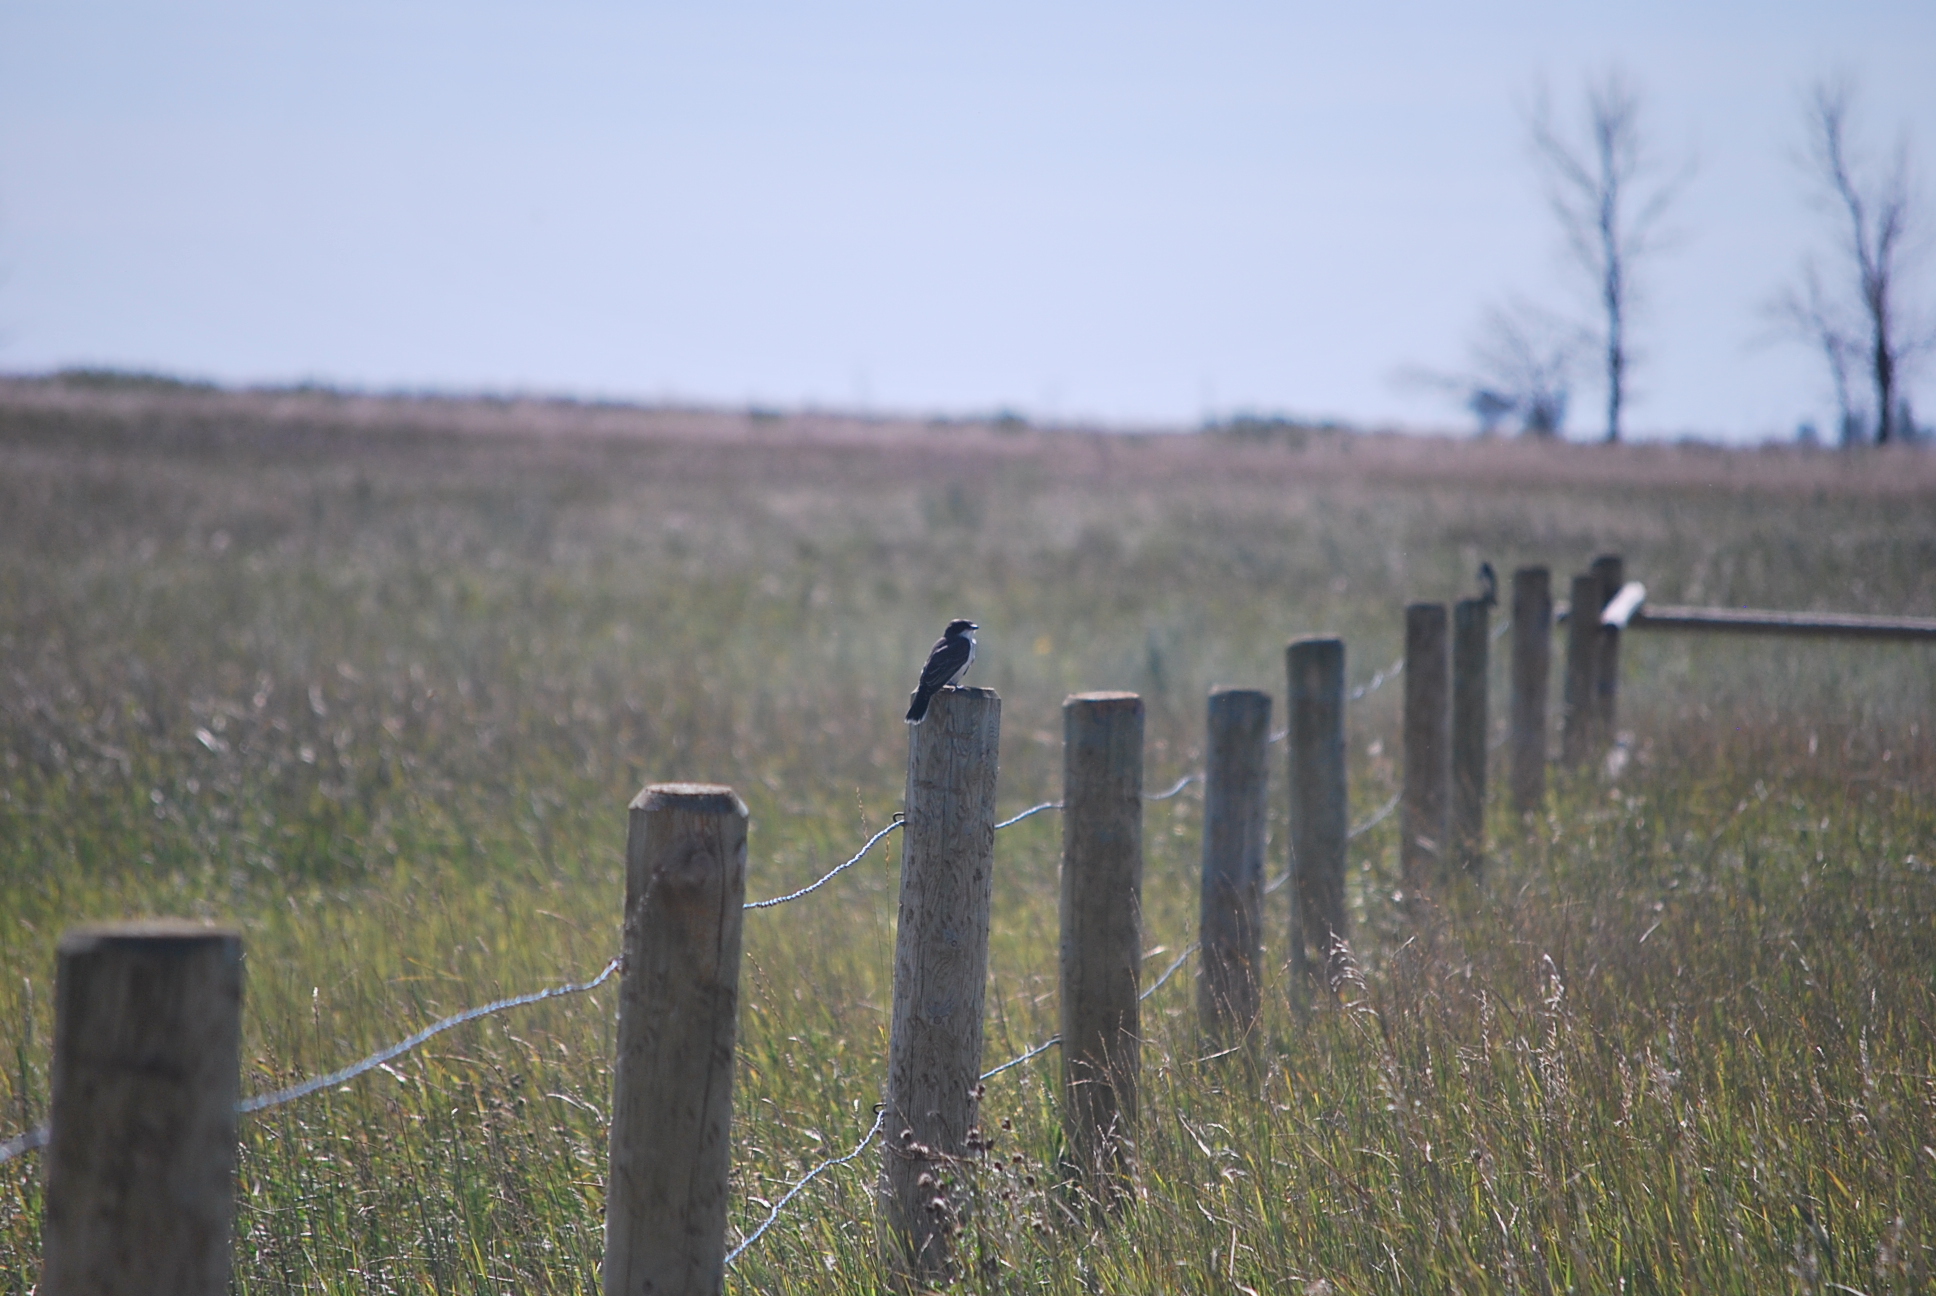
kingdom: Animalia
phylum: Chordata
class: Aves
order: Passeriformes
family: Tyrannidae
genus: Tyrannus
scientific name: Tyrannus tyrannus
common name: Eastern kingbird
